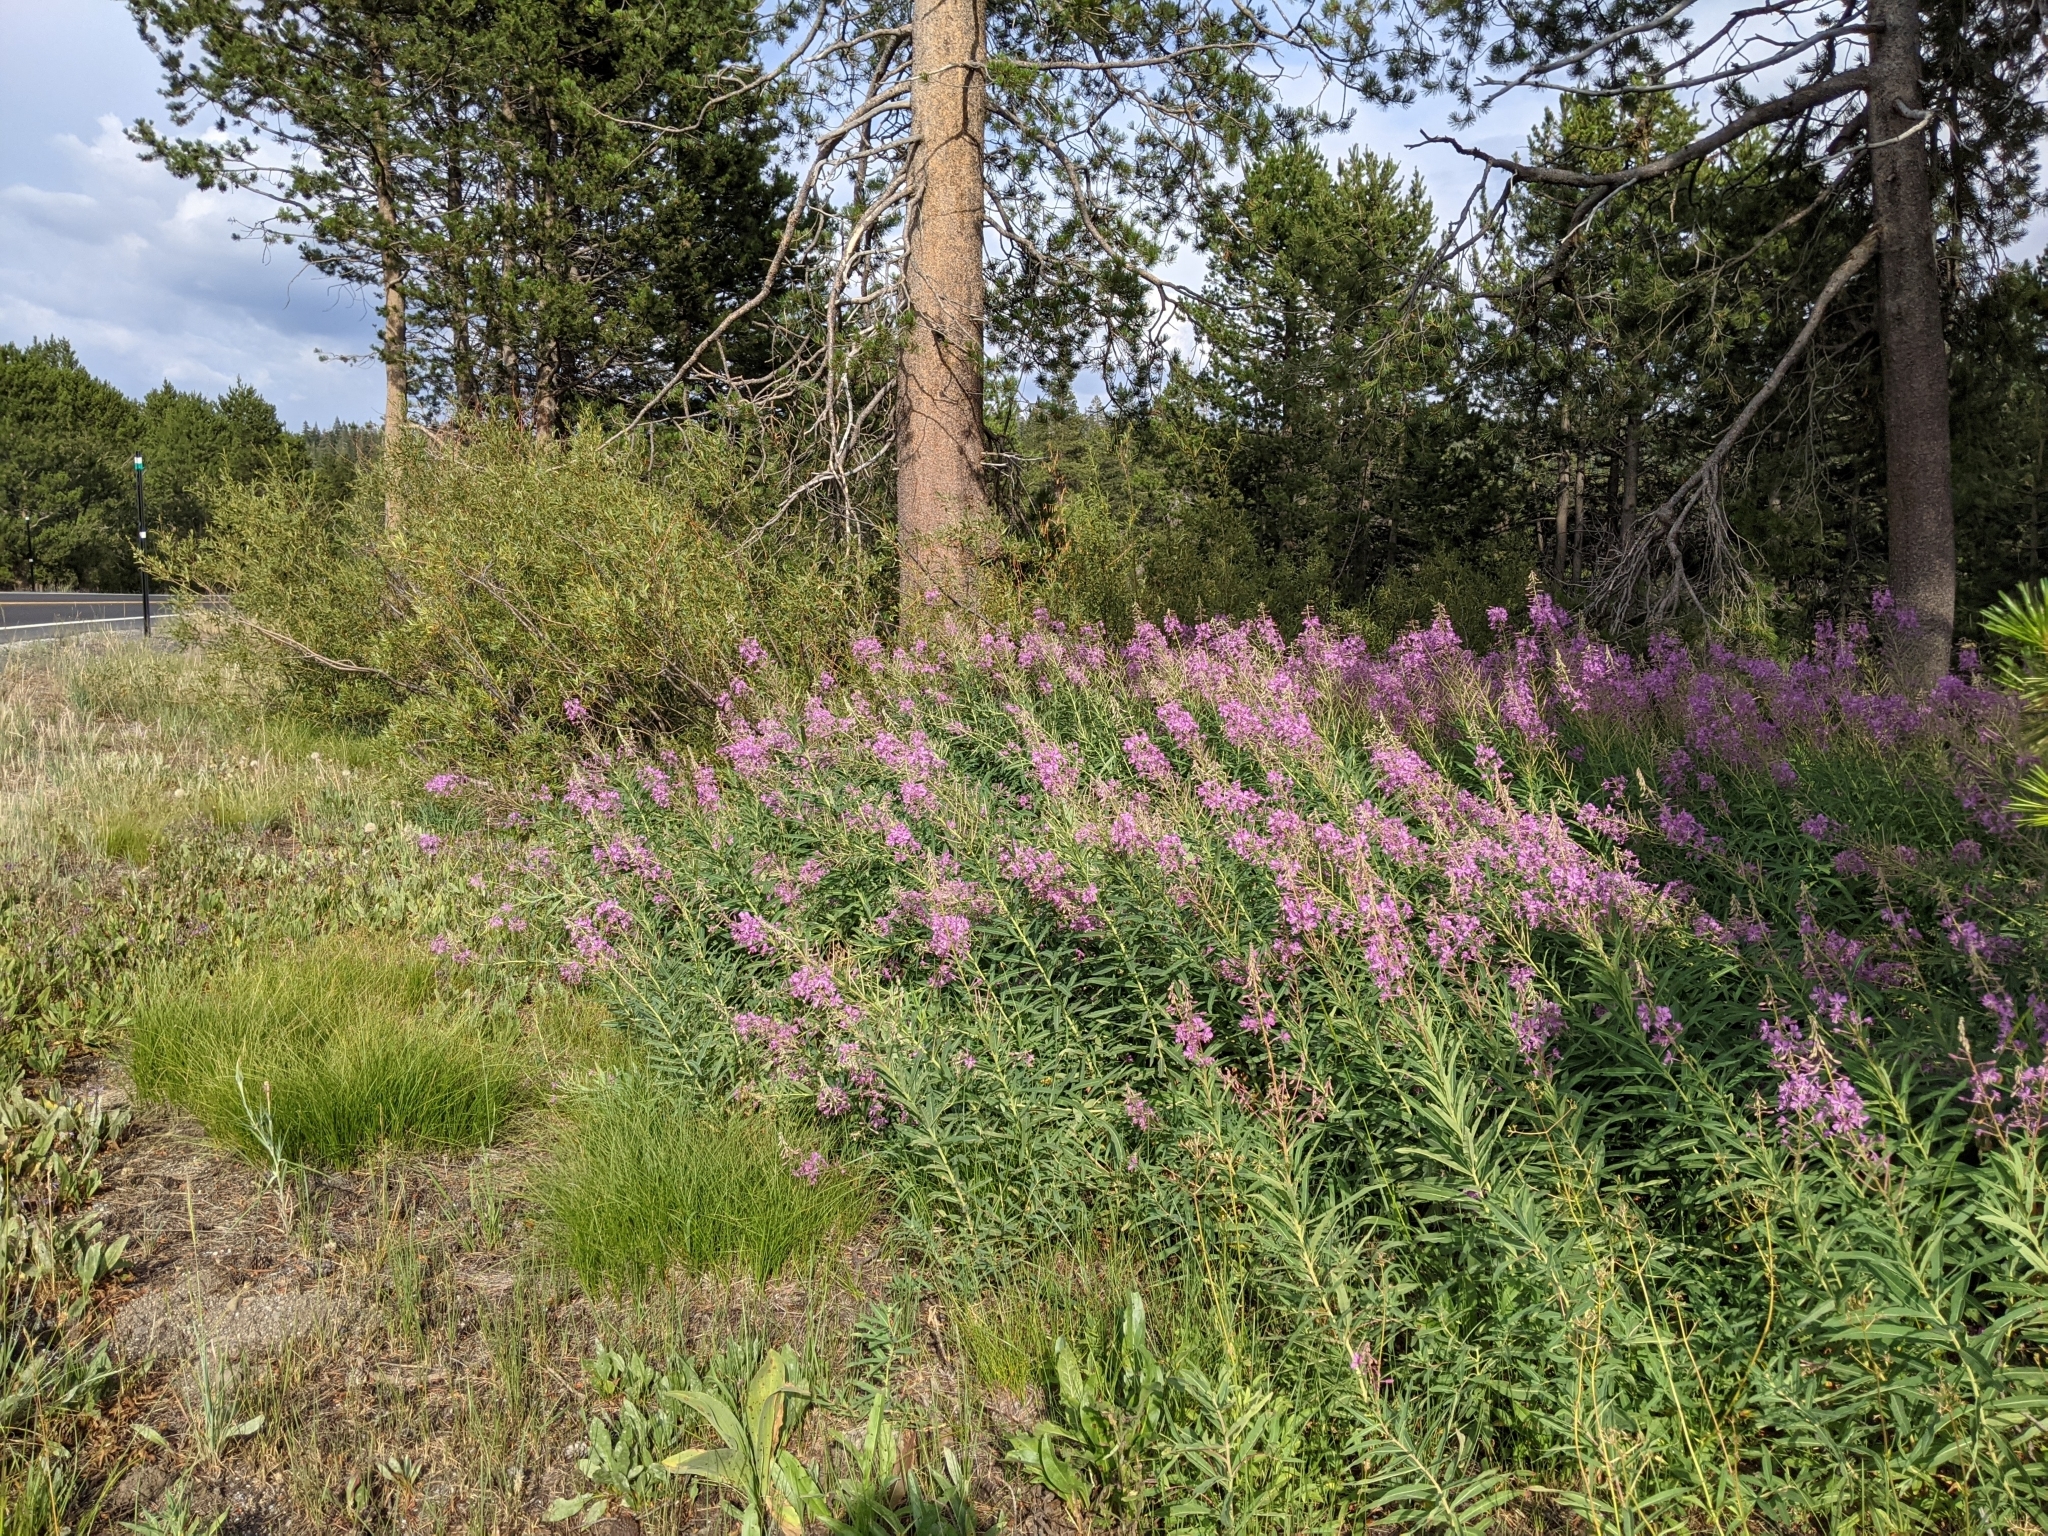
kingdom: Plantae
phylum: Tracheophyta
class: Magnoliopsida
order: Myrtales
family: Onagraceae
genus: Chamaenerion
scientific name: Chamaenerion angustifolium
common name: Fireweed
